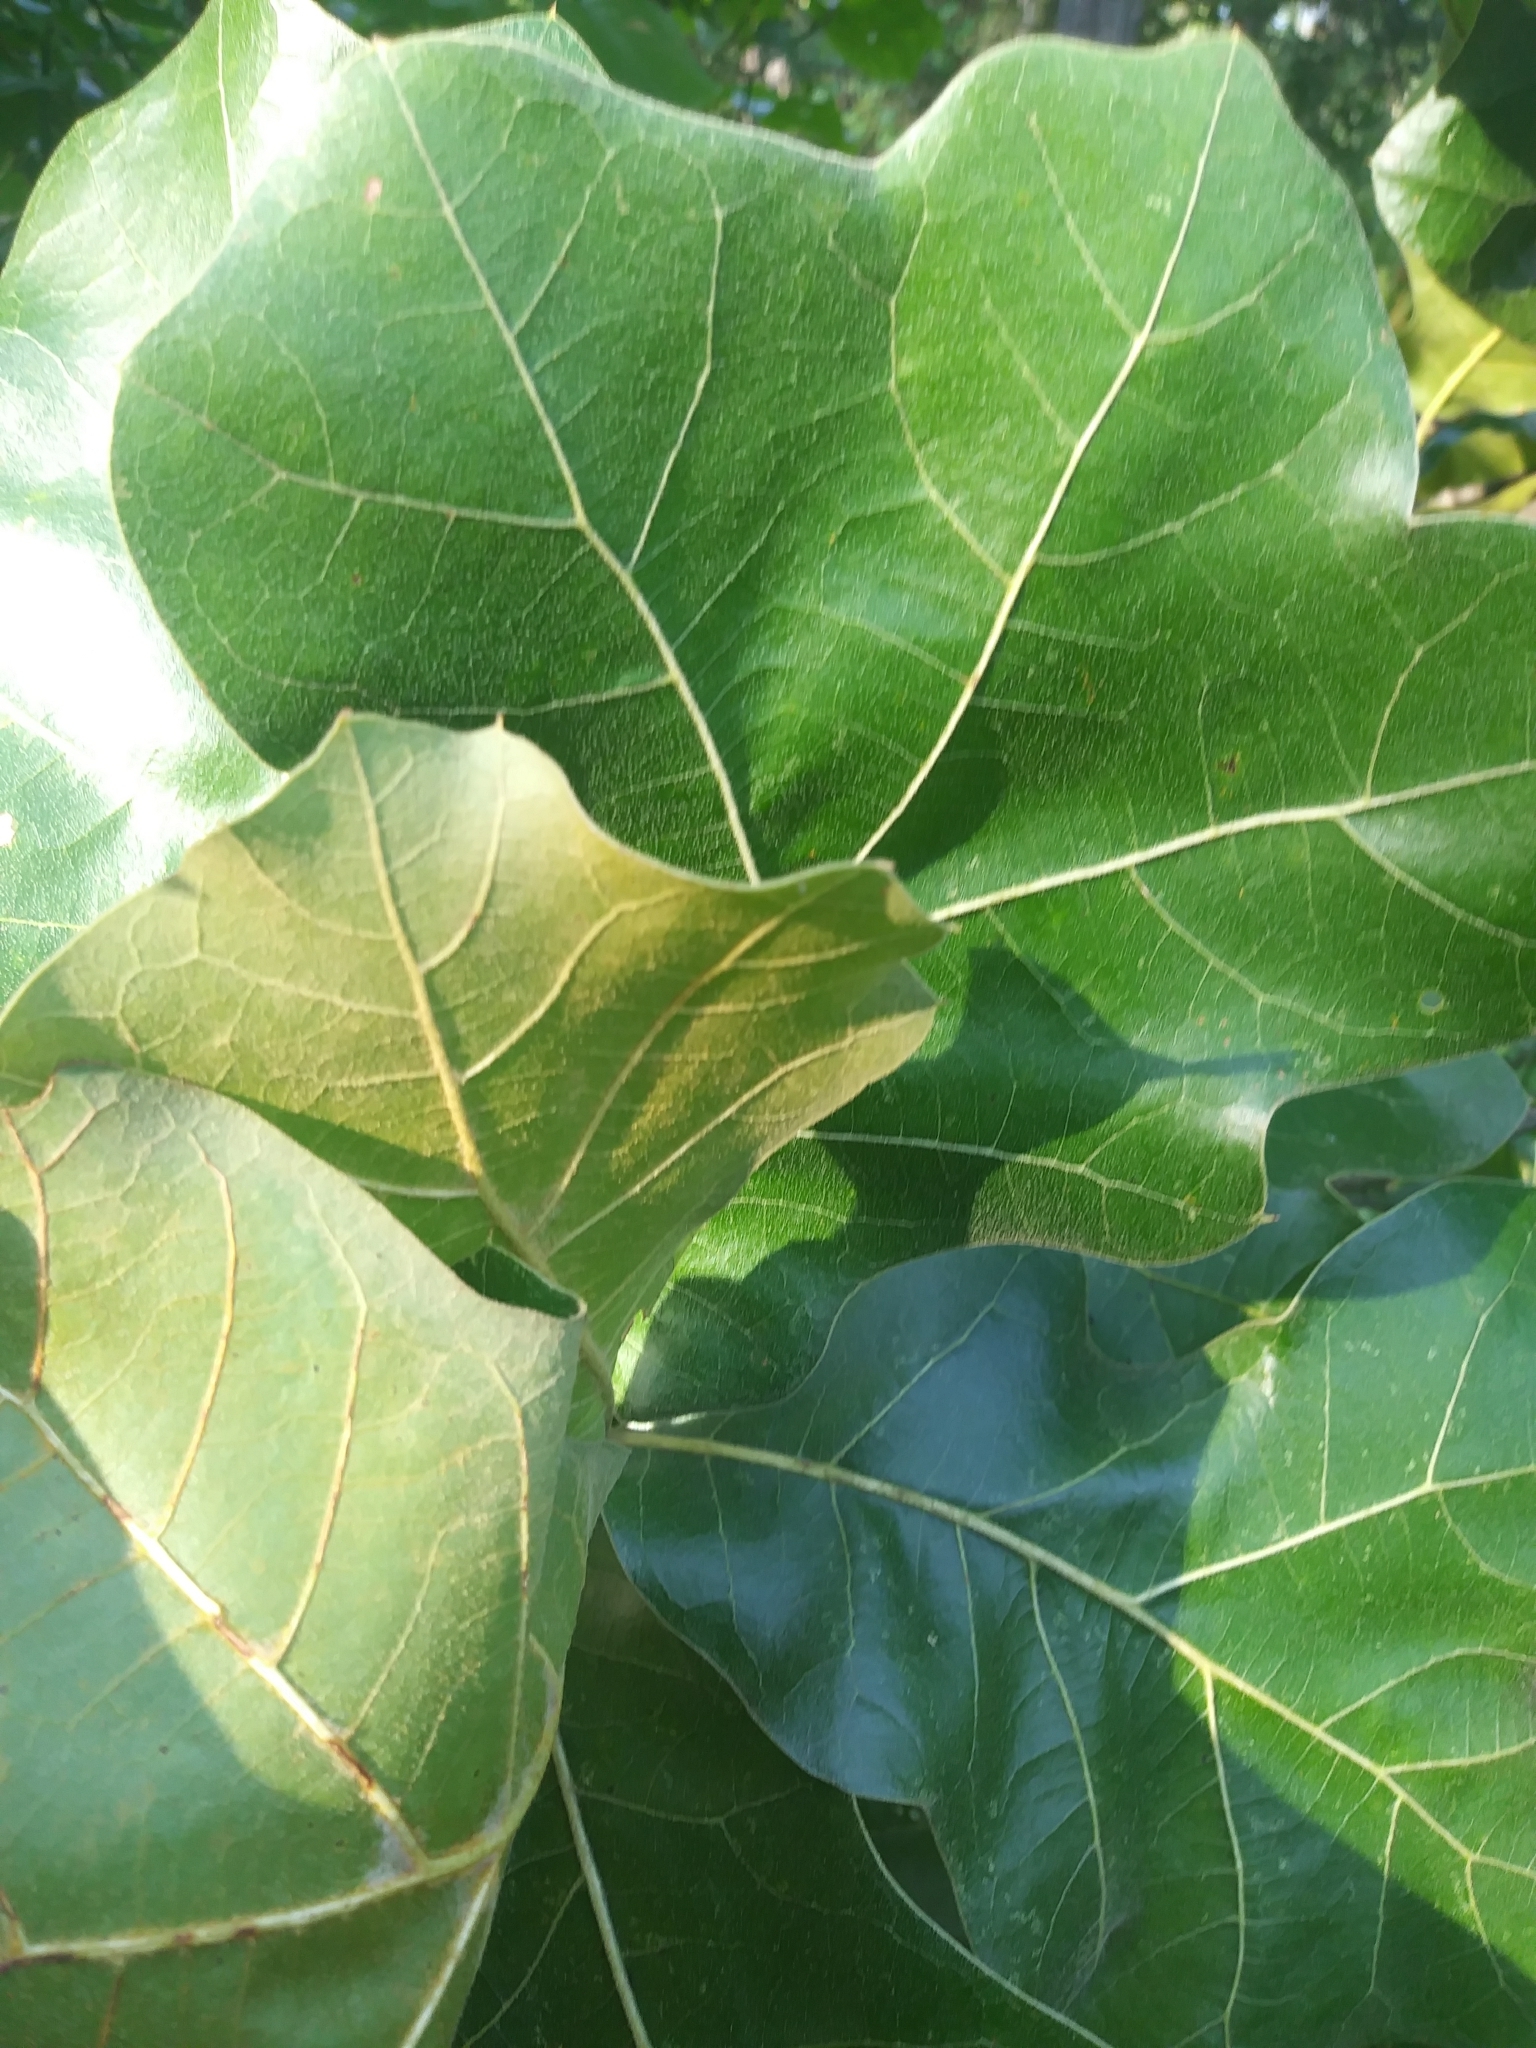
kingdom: Plantae
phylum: Tracheophyta
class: Magnoliopsida
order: Fagales
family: Fagaceae
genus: Quercus
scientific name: Quercus marilandica
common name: Blackjack oak
